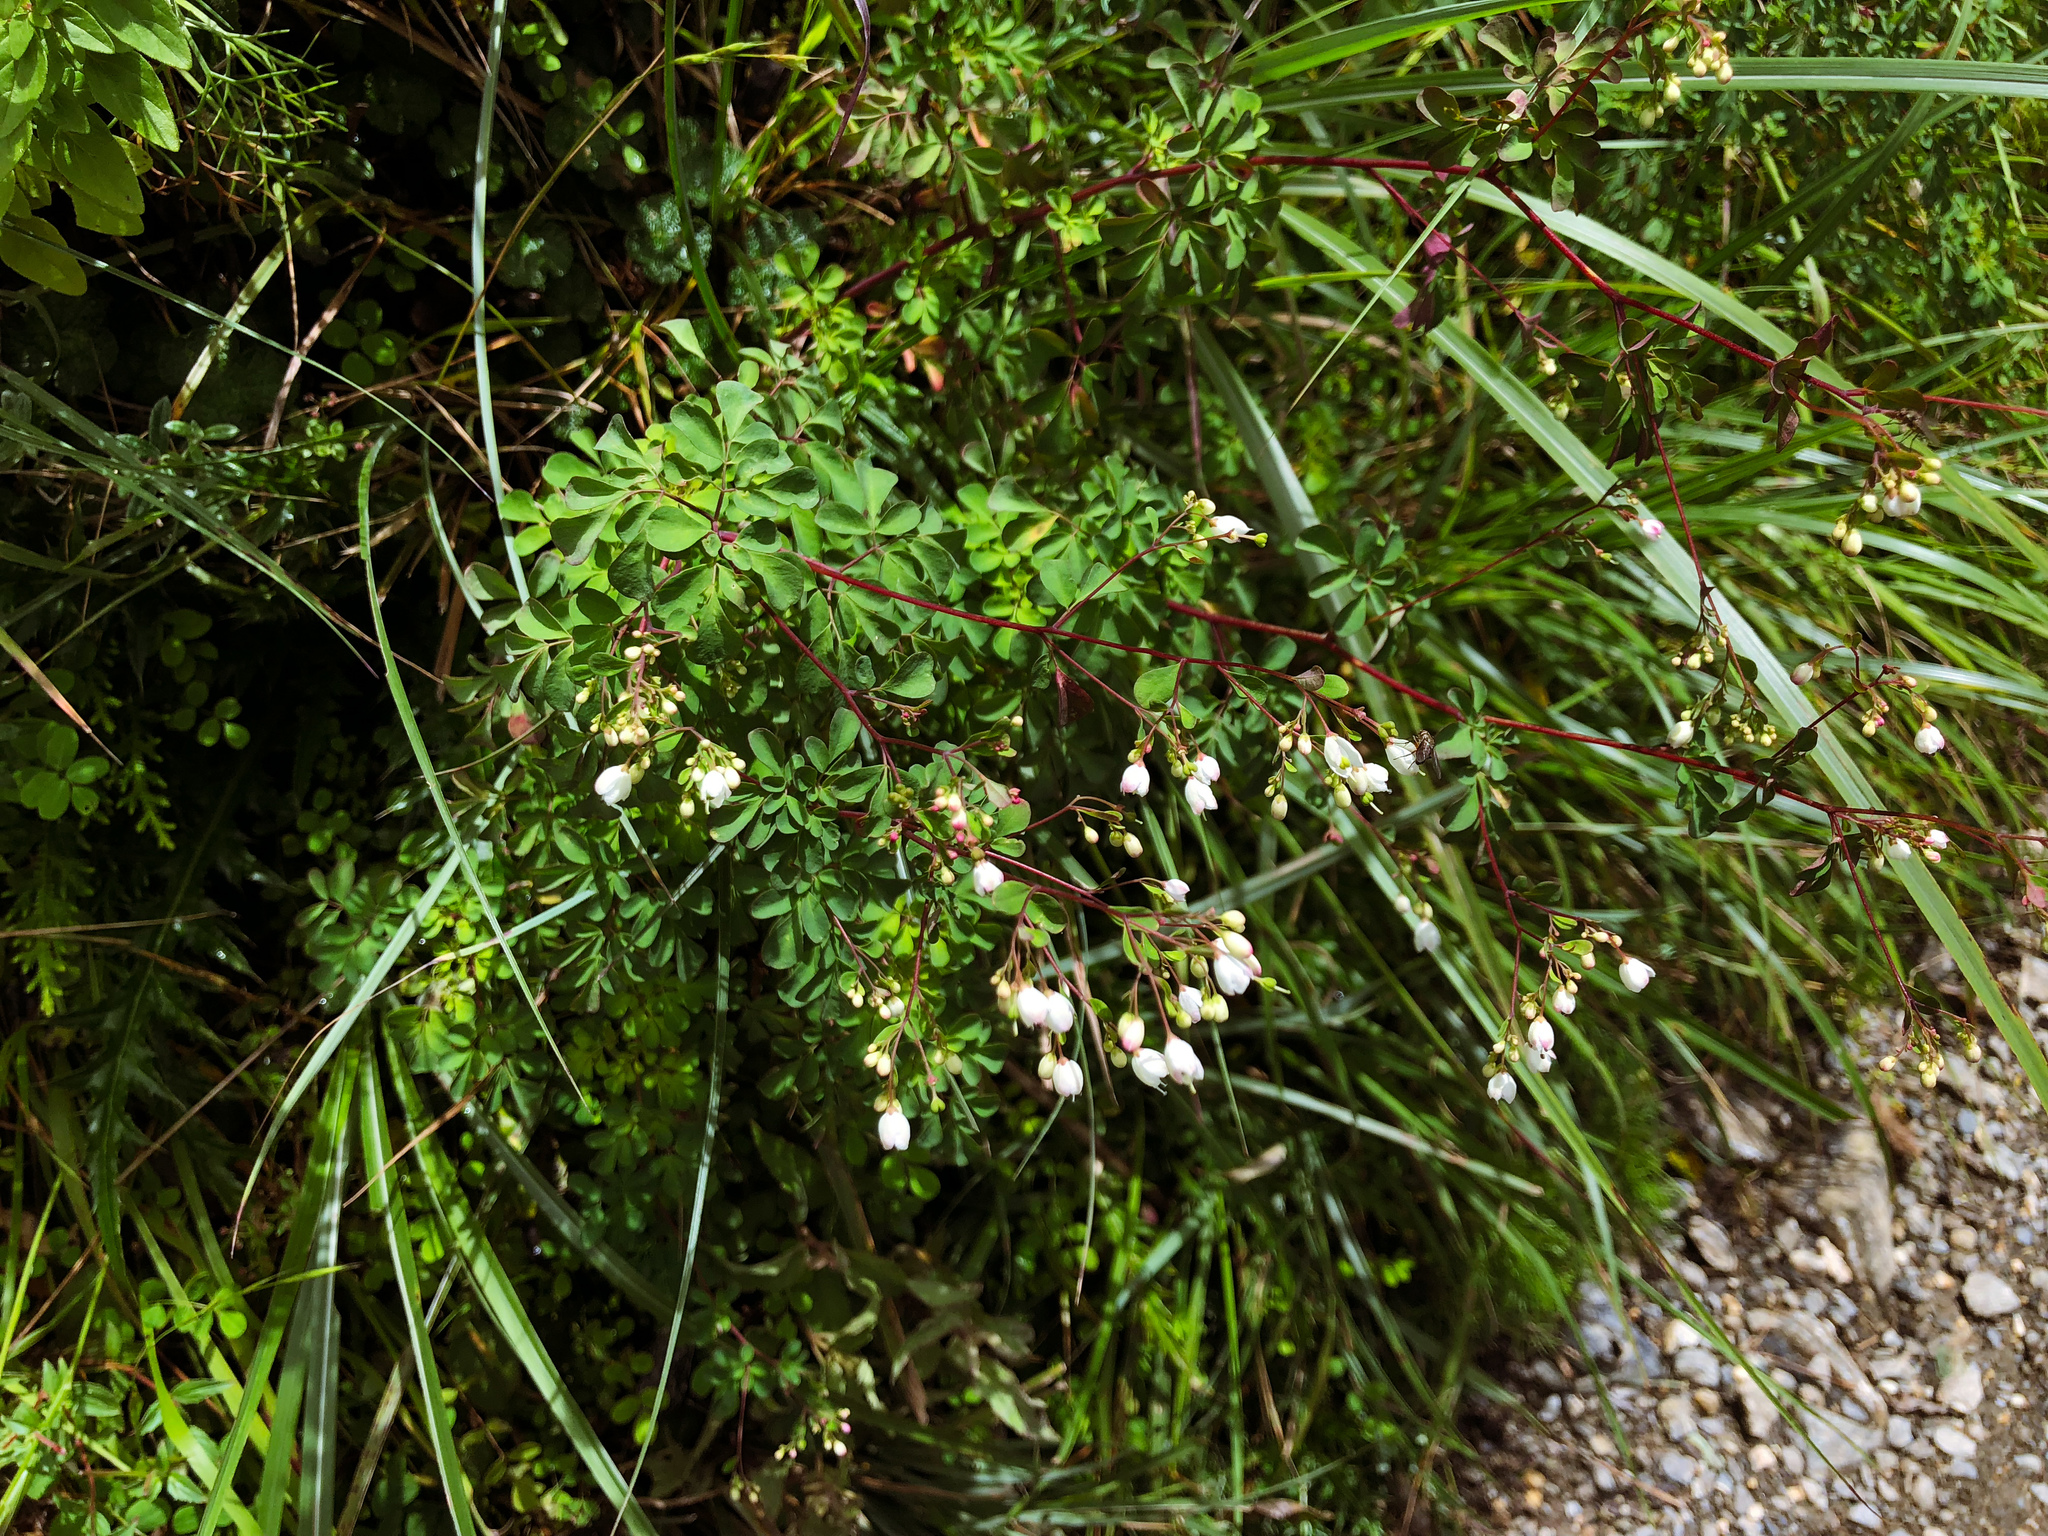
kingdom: Plantae
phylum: Tracheophyta
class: Magnoliopsida
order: Sapindales
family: Rutaceae
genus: Boenninghausenia
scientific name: Boenninghausenia albiflora
